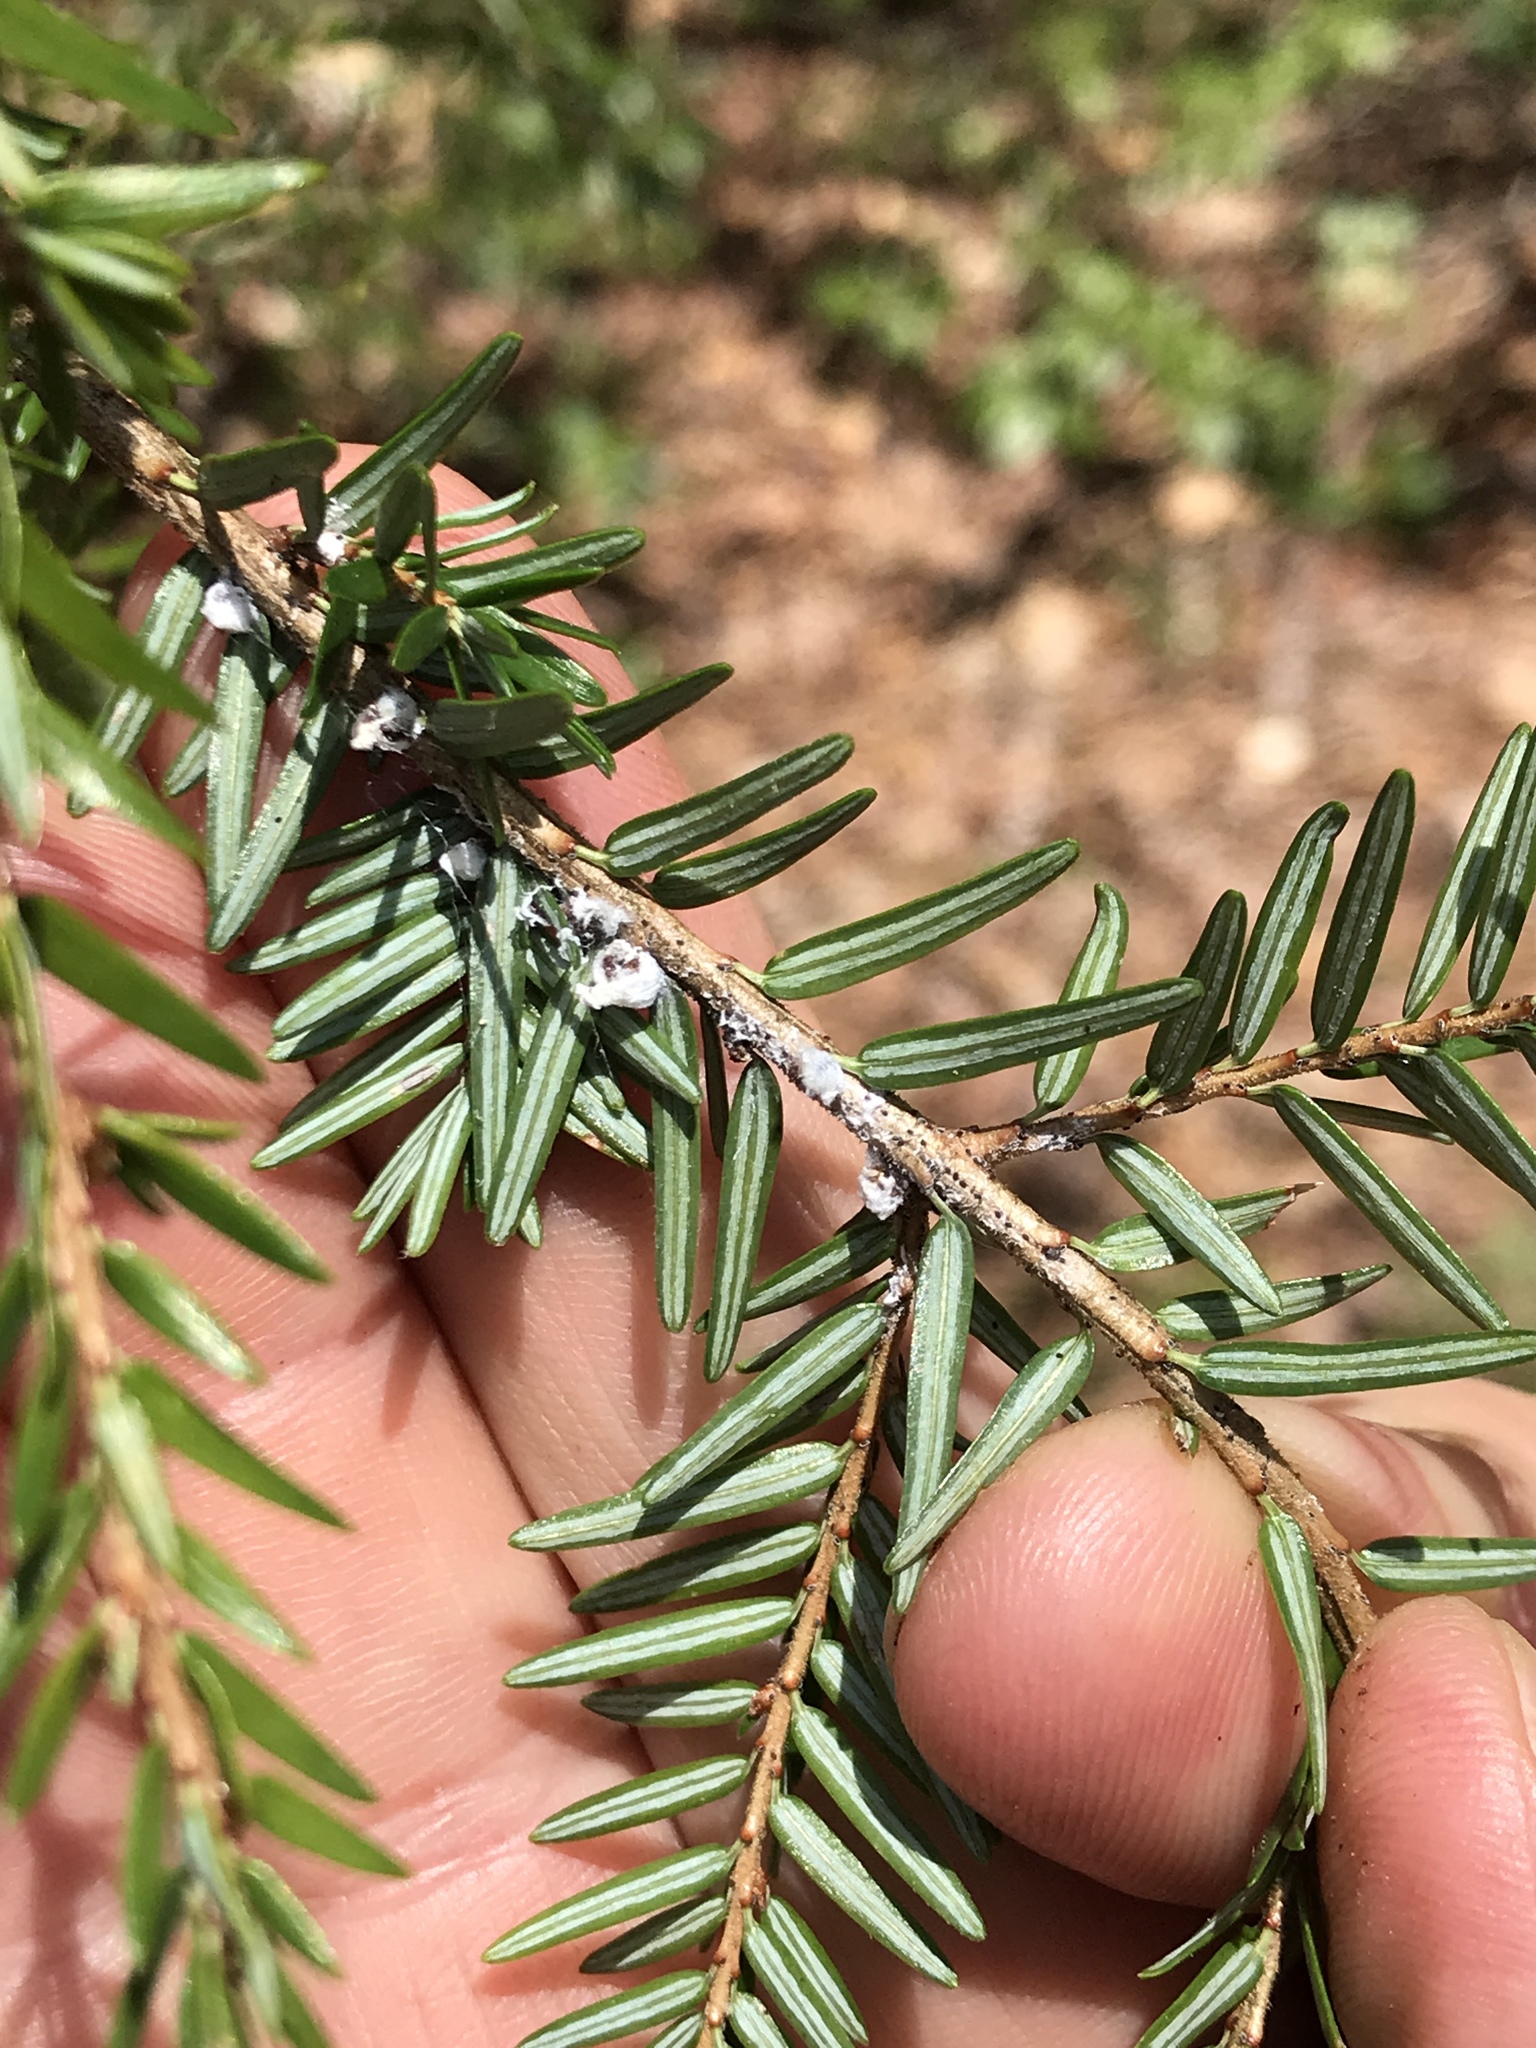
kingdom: Animalia
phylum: Arthropoda
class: Insecta
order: Hemiptera
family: Adelgidae
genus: Adelges
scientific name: Adelges tsugae
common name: Hemlock woolly adelgid
